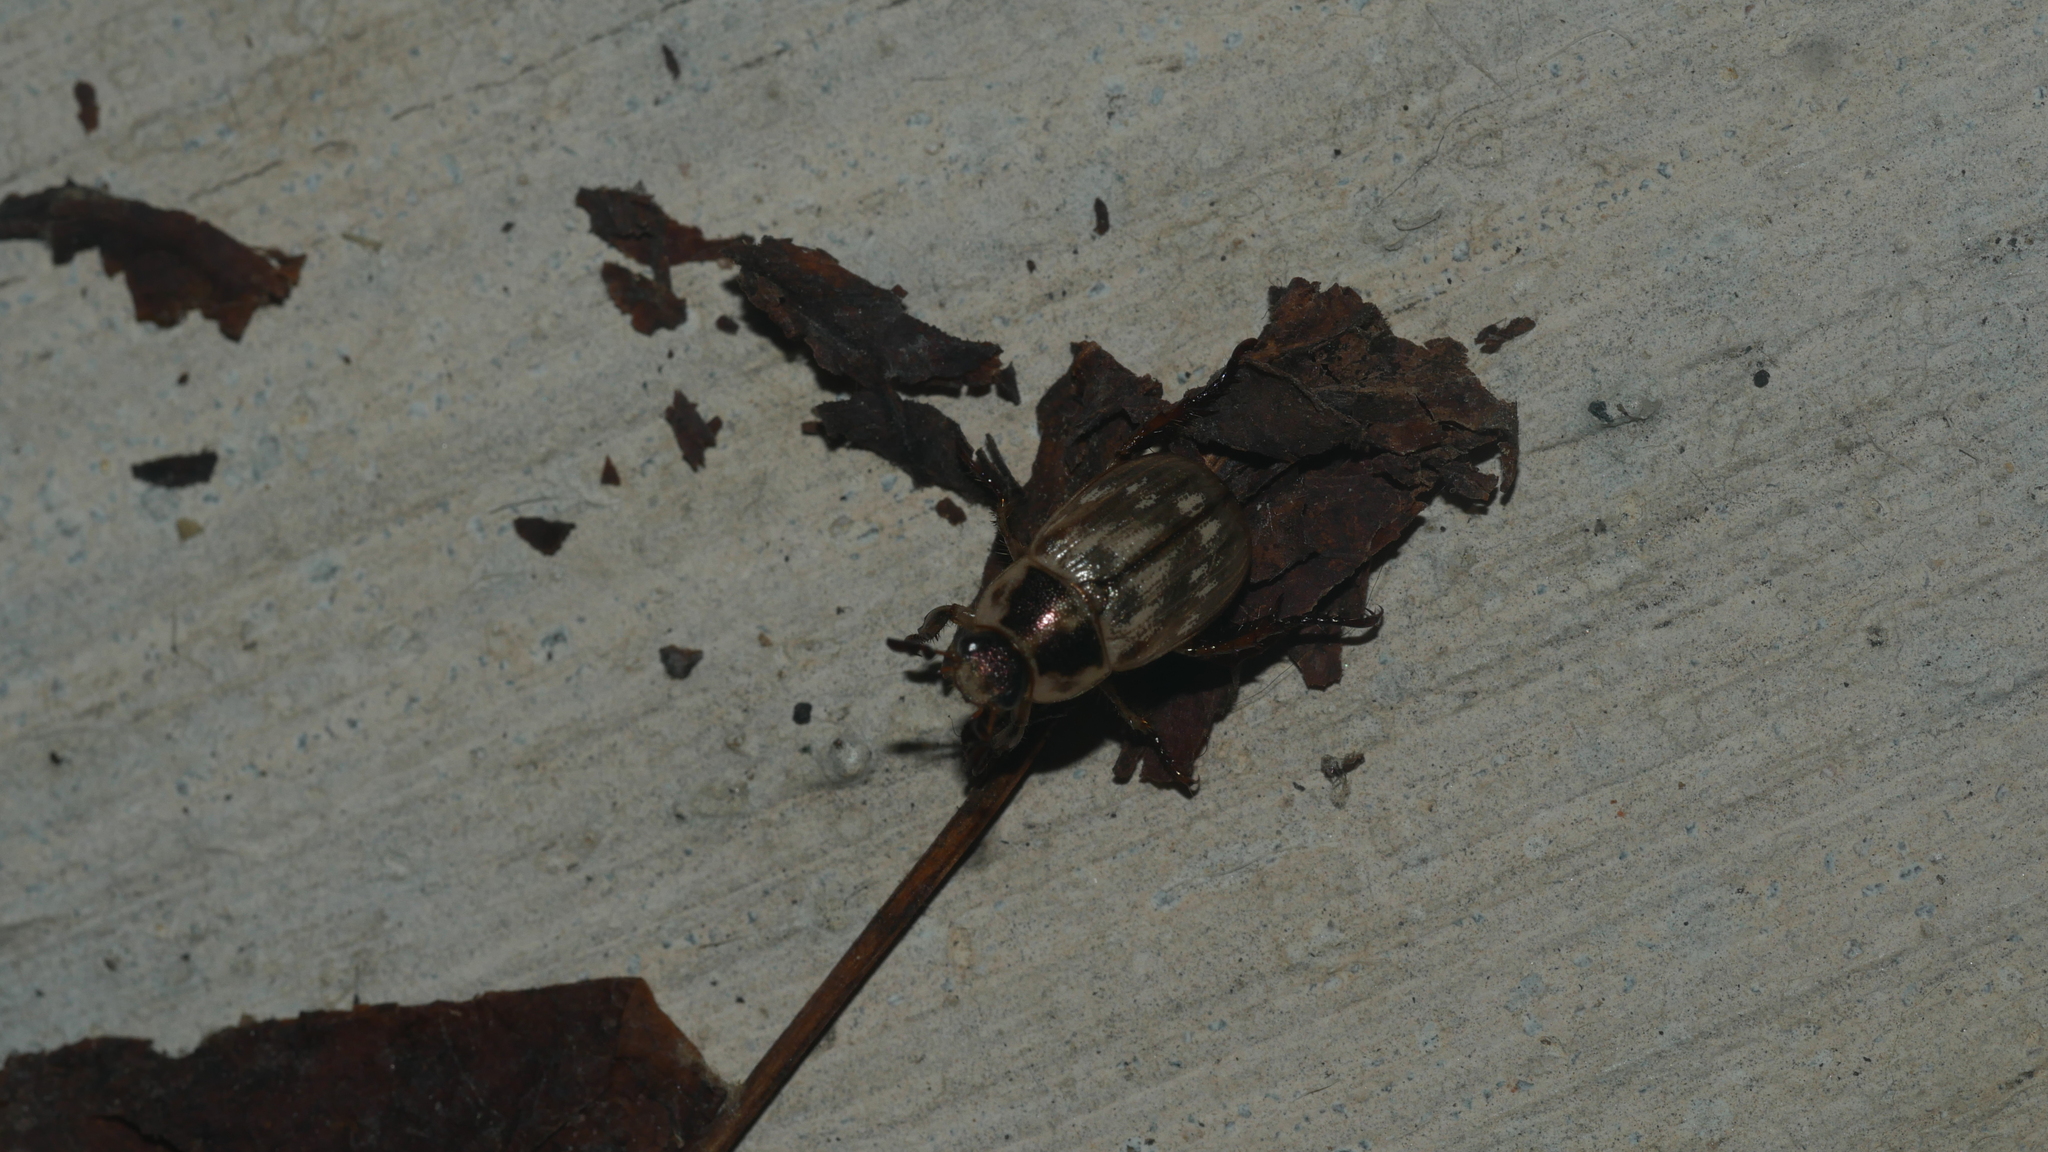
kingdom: Animalia
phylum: Arthropoda
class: Insecta
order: Coleoptera
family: Scarabaeidae
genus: Exomala
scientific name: Exomala orientalis
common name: Oriental beetle
